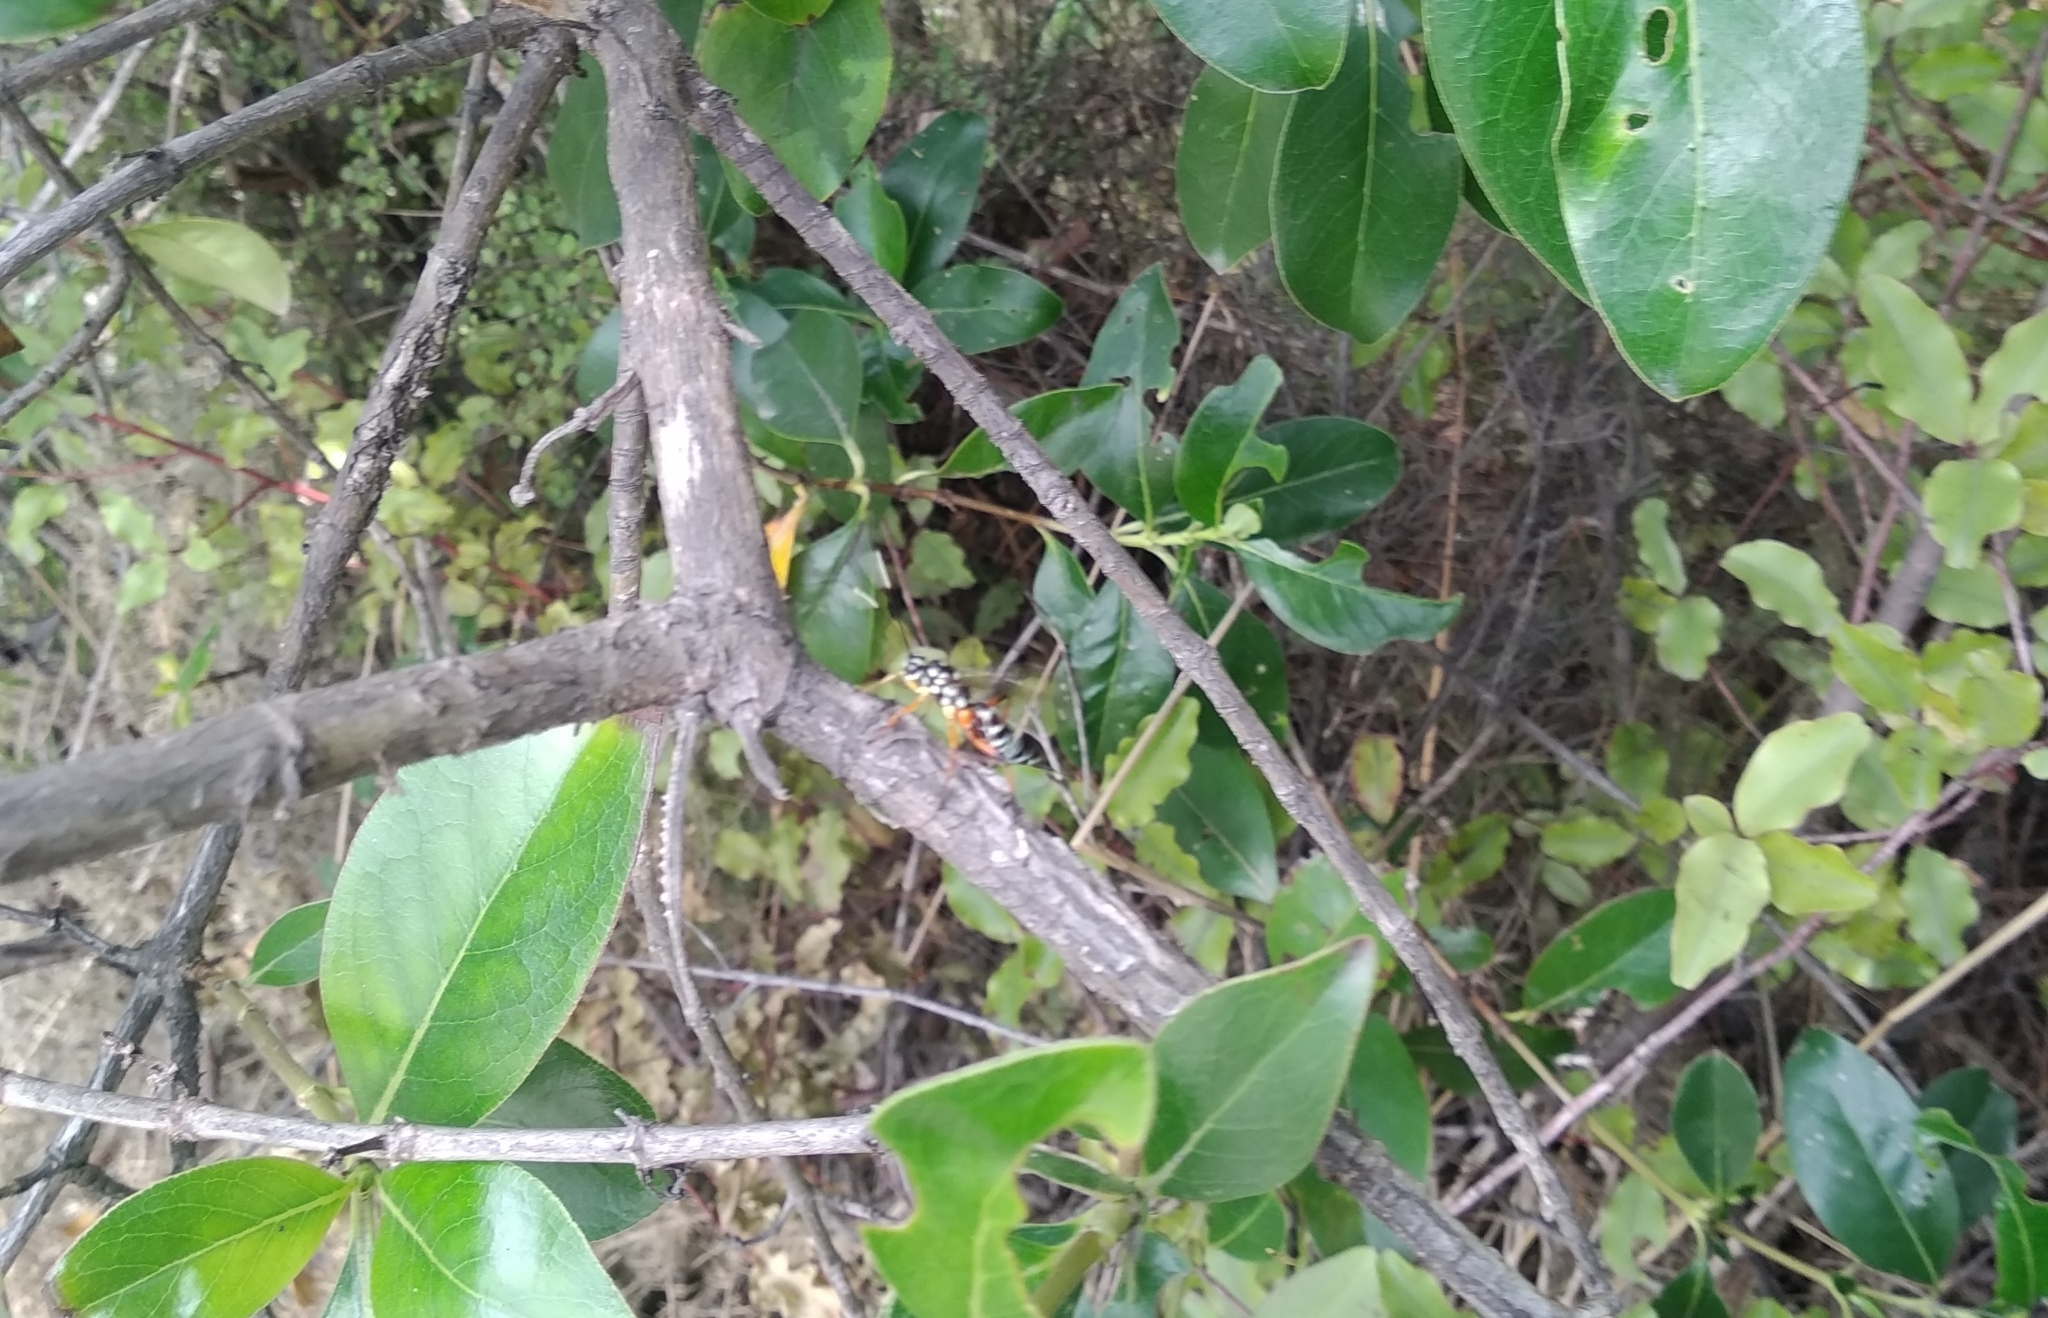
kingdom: Animalia
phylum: Arthropoda
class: Insecta
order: Hymenoptera
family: Ichneumonidae
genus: Xanthocryptus
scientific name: Xanthocryptus novozealandicus
